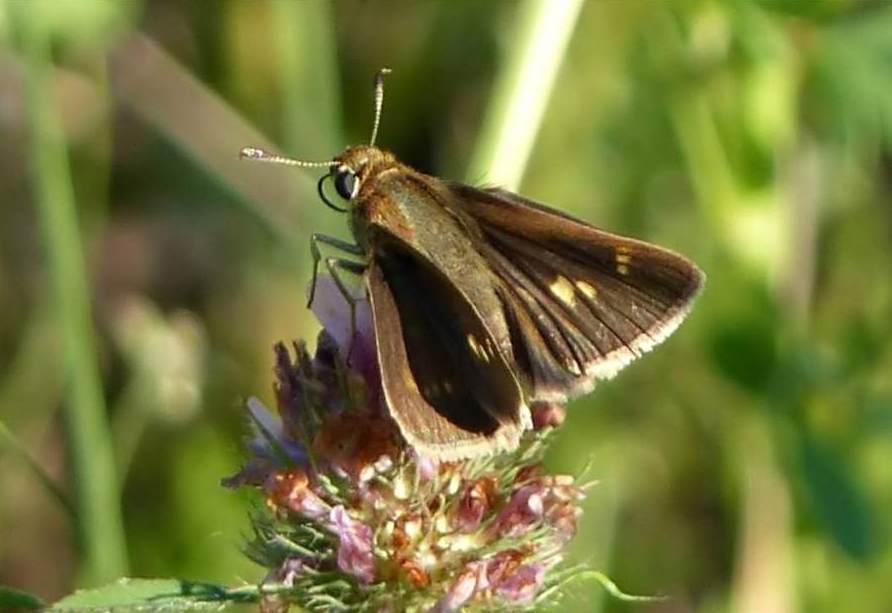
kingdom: Animalia
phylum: Arthropoda
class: Insecta
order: Lepidoptera
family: Hesperiidae
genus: Polites
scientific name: Polites egeremet
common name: Northern broken-dash
